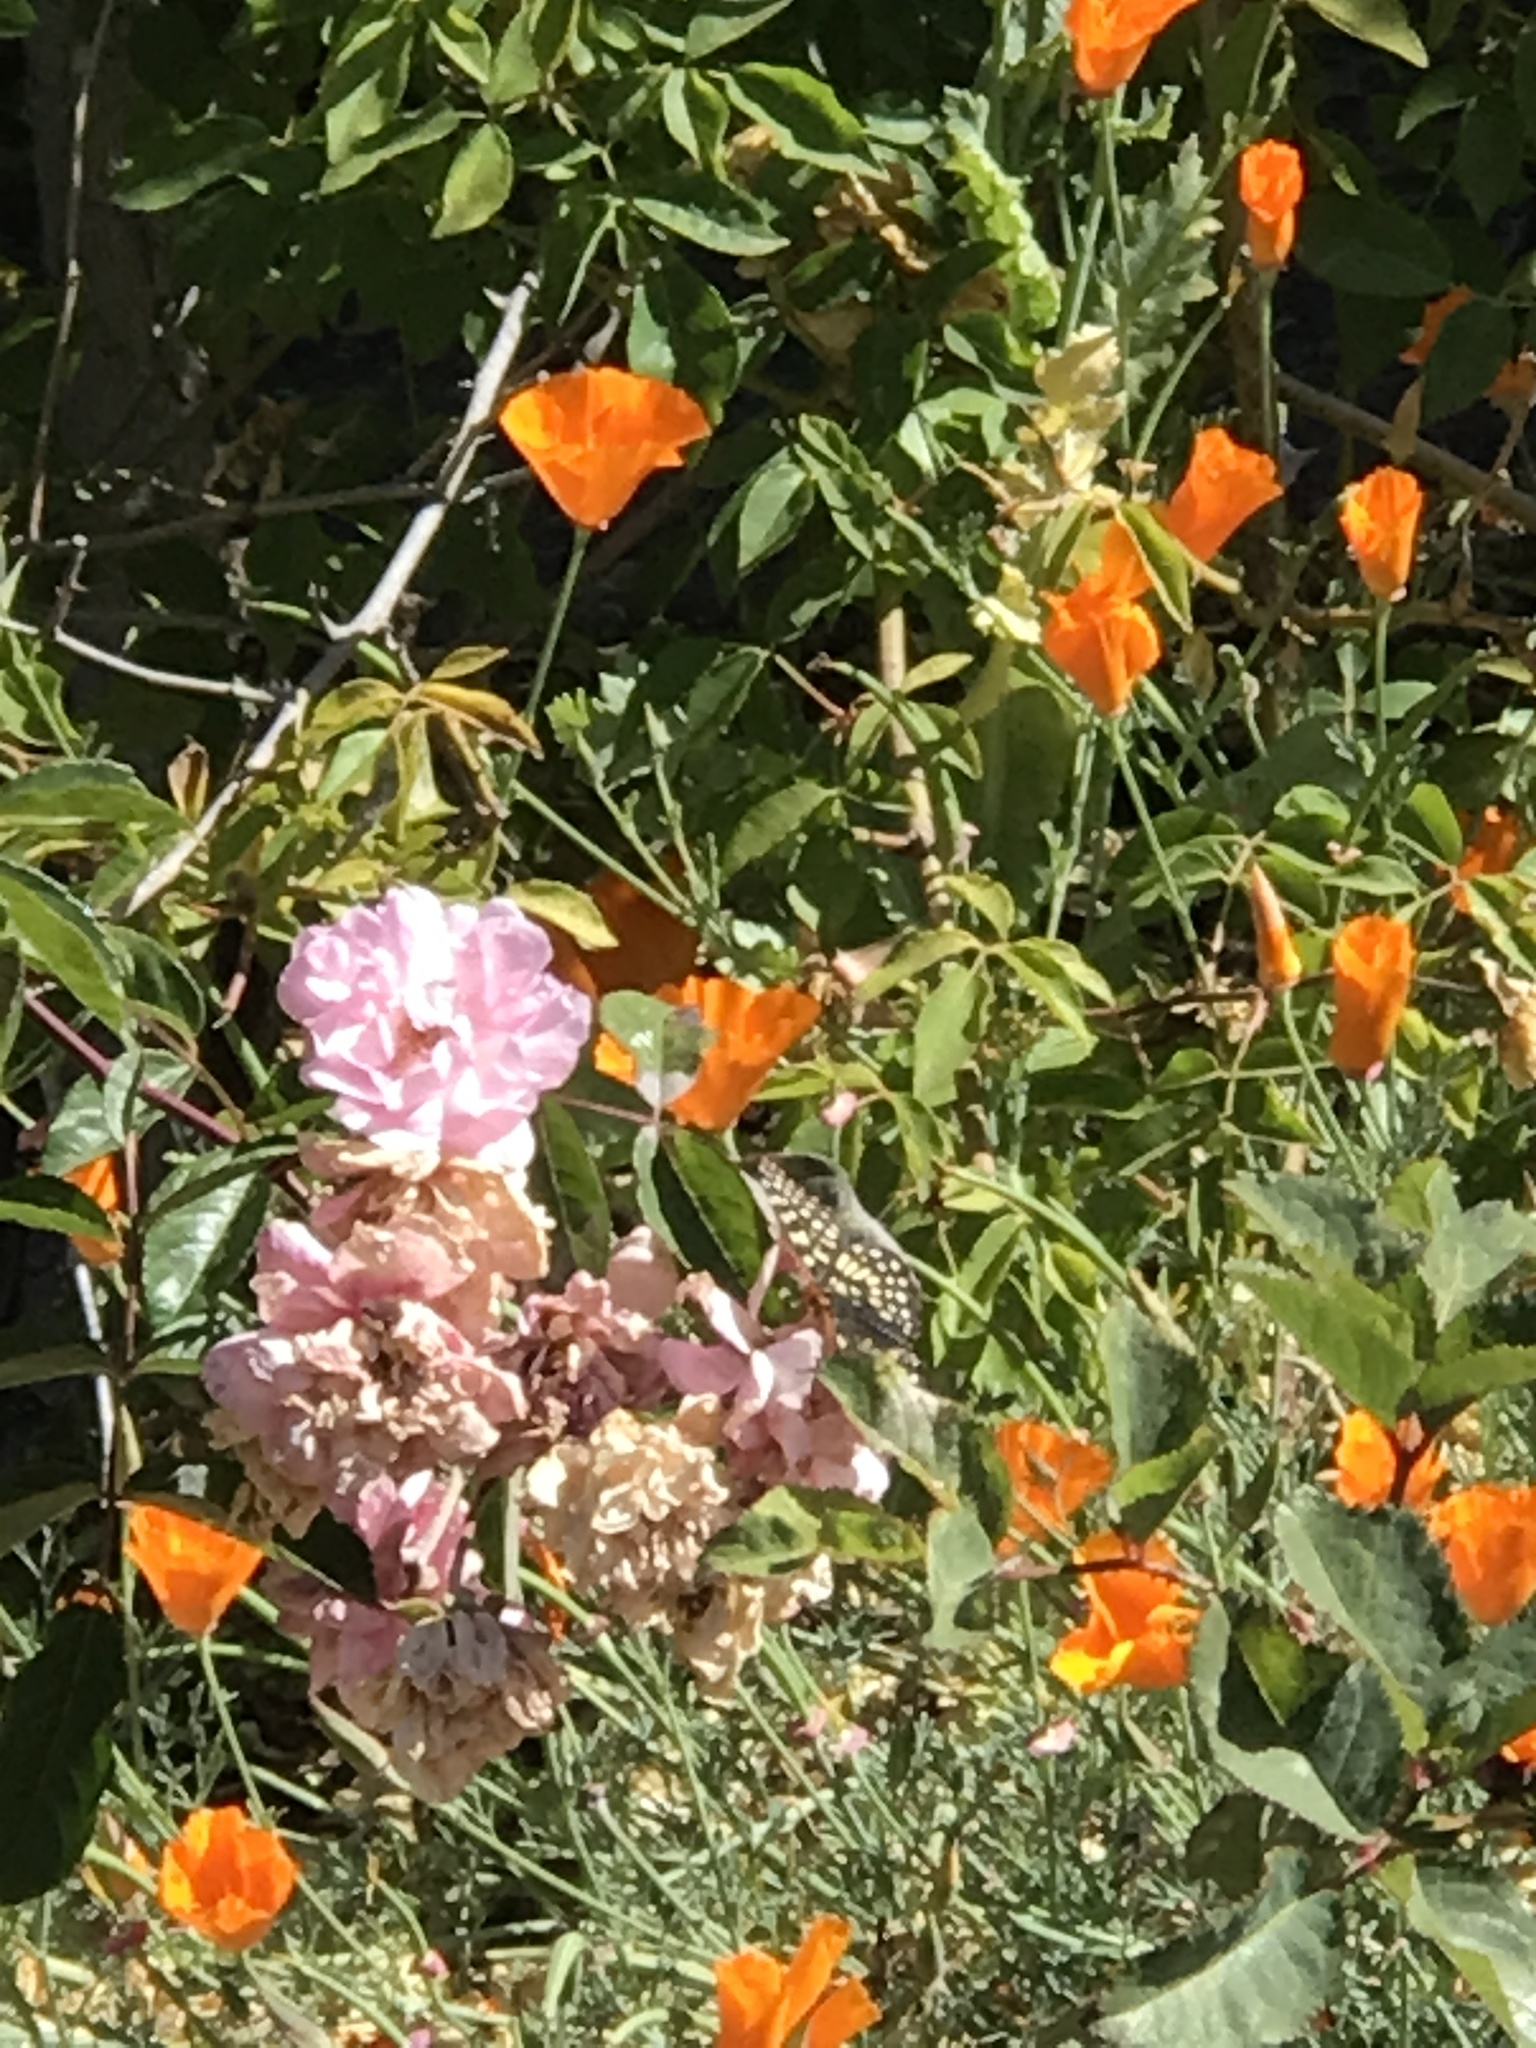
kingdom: Animalia
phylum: Arthropoda
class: Insecta
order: Lepidoptera
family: Nymphalidae
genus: Occidryas
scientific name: Occidryas chalcedona
